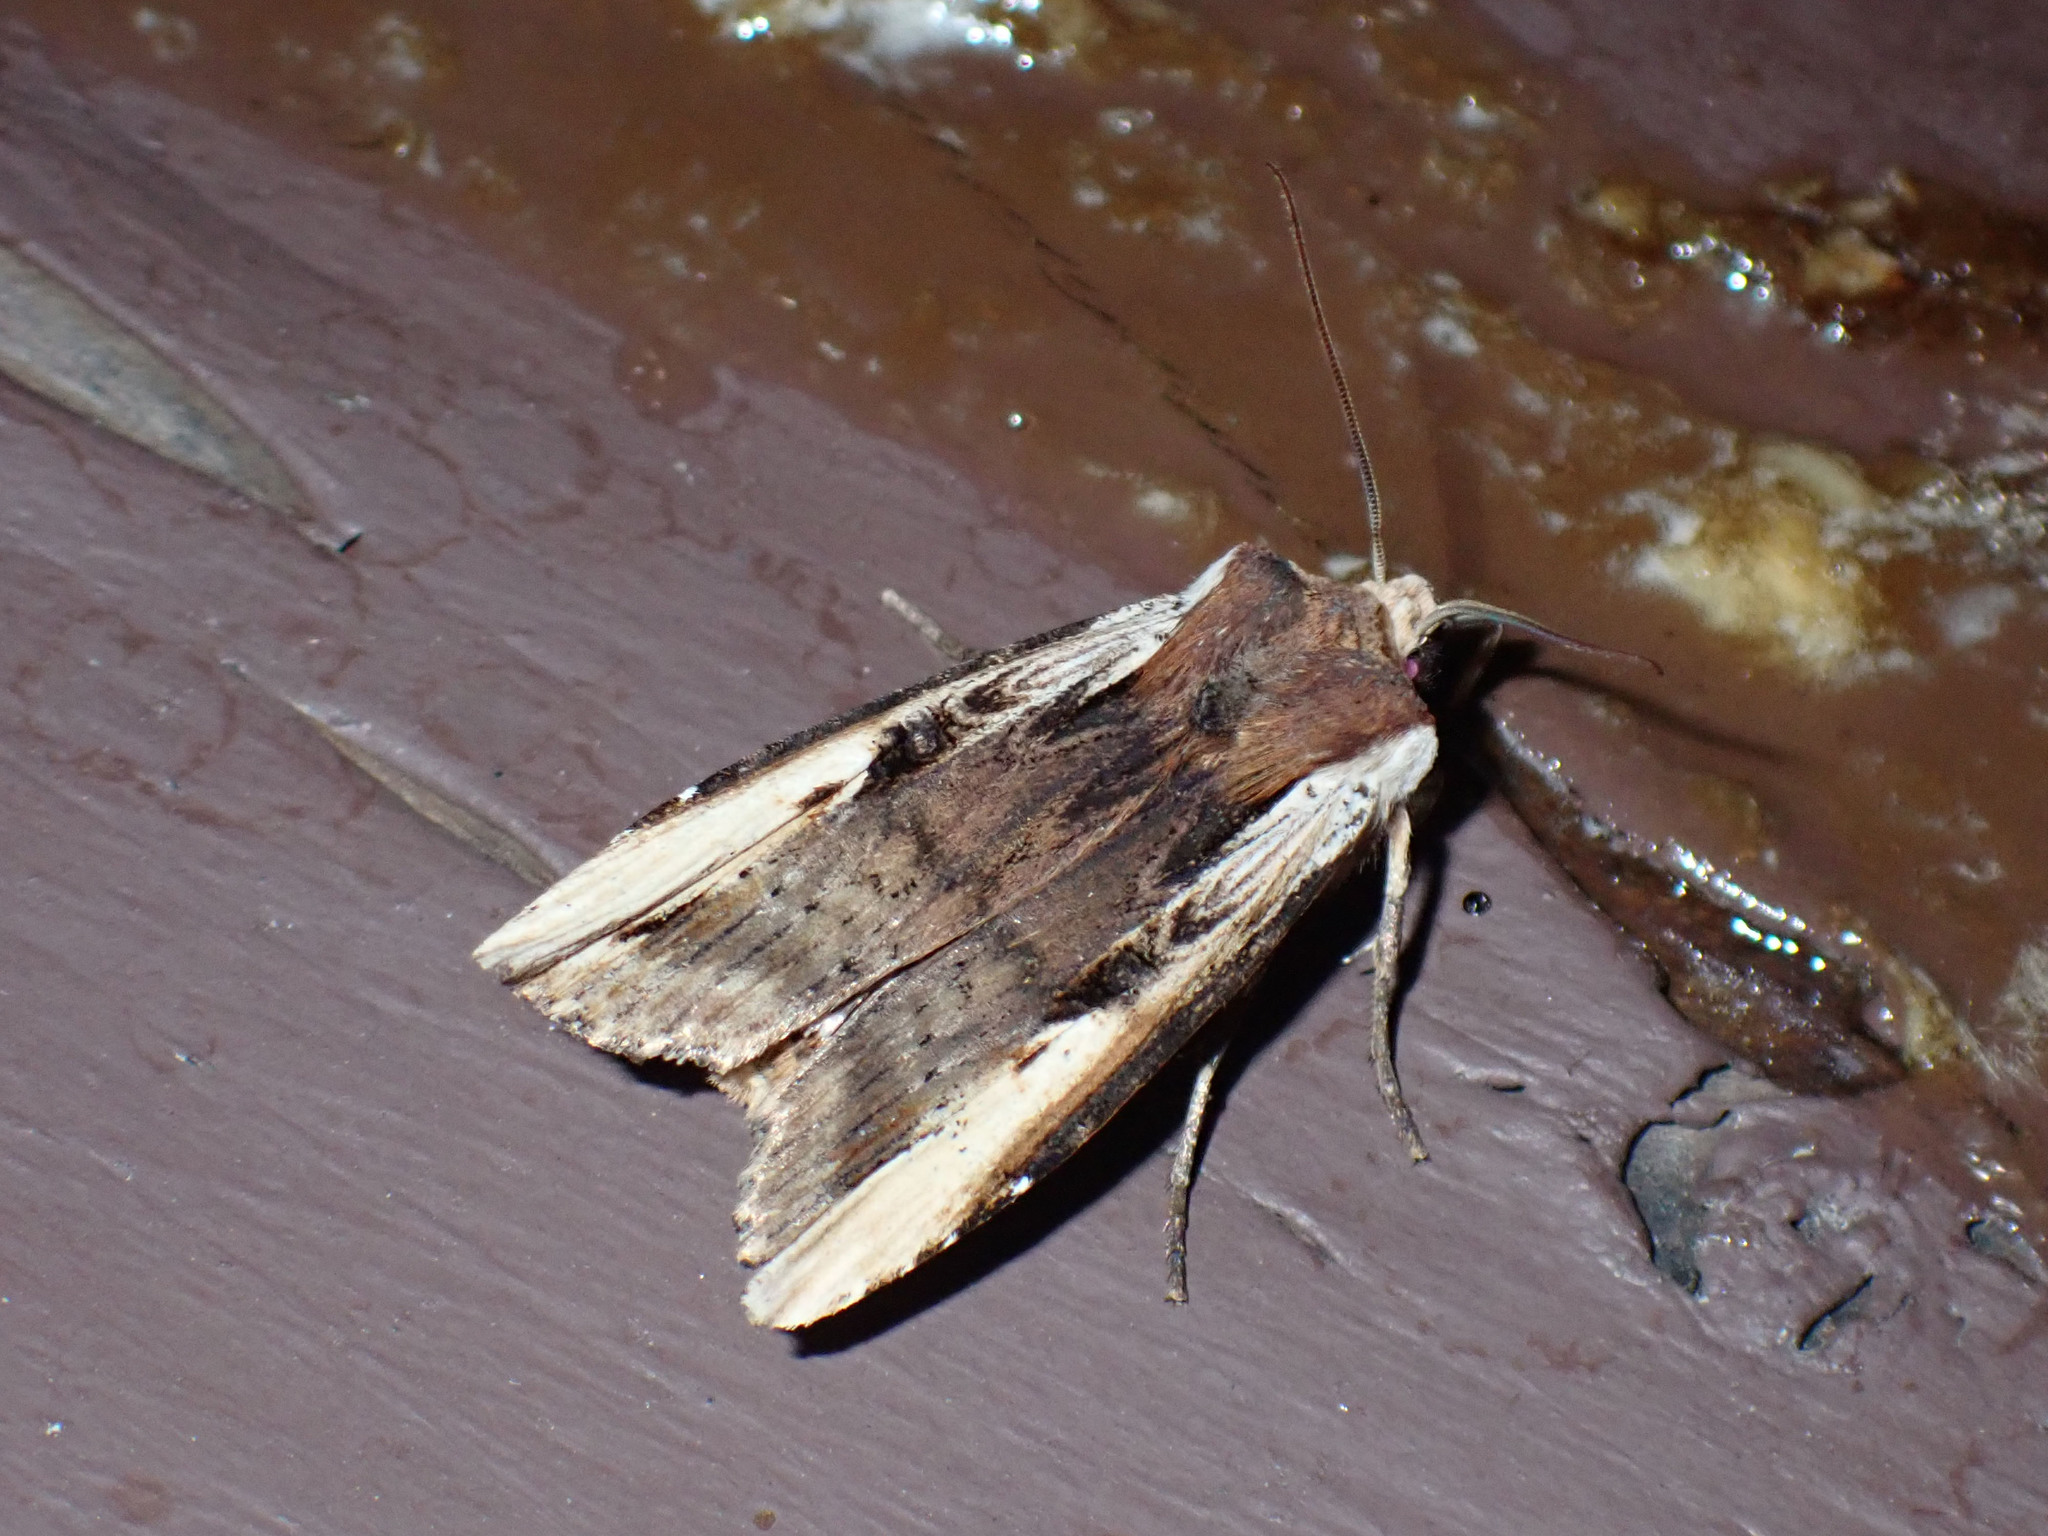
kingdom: Animalia
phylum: Arthropoda
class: Insecta
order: Lepidoptera
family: Noctuidae
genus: Xylena
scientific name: Xylena curvimacula
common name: Dot-and-dash swordgrass moth
